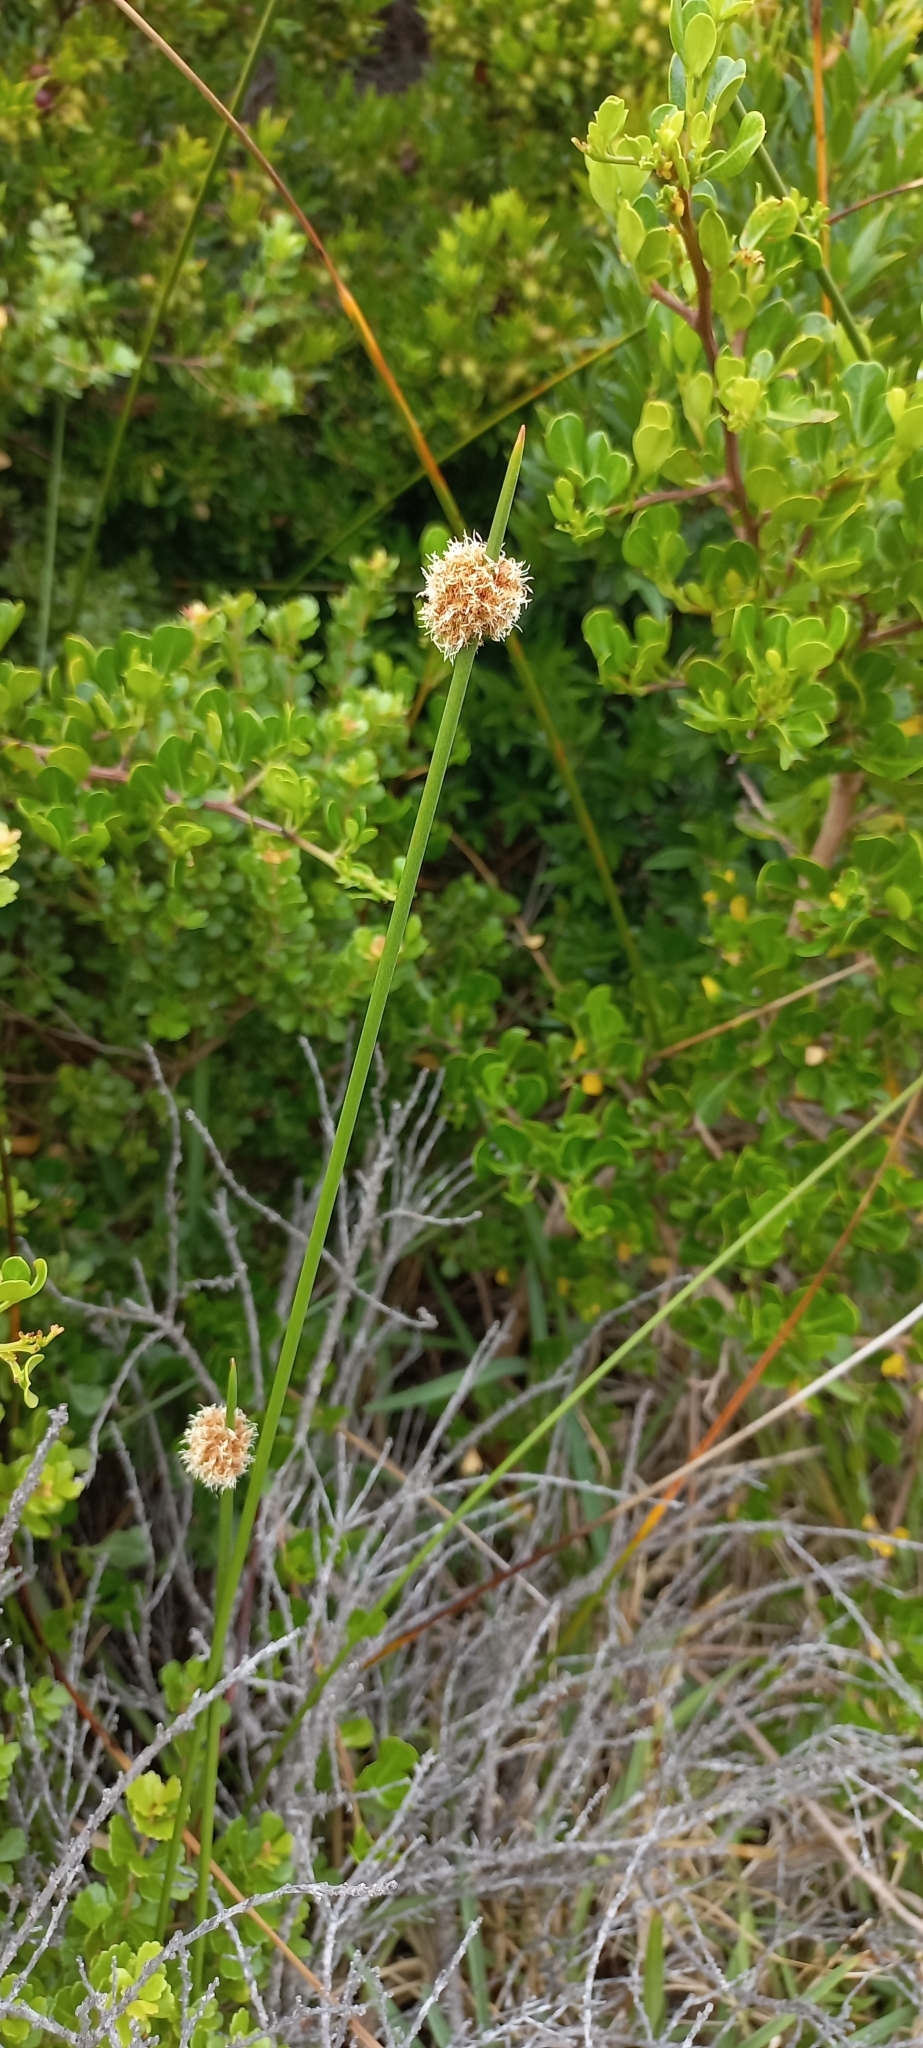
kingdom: Plantae
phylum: Tracheophyta
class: Liliopsida
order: Poales
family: Cyperaceae
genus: Ficinia
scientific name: Ficinia nodosa
